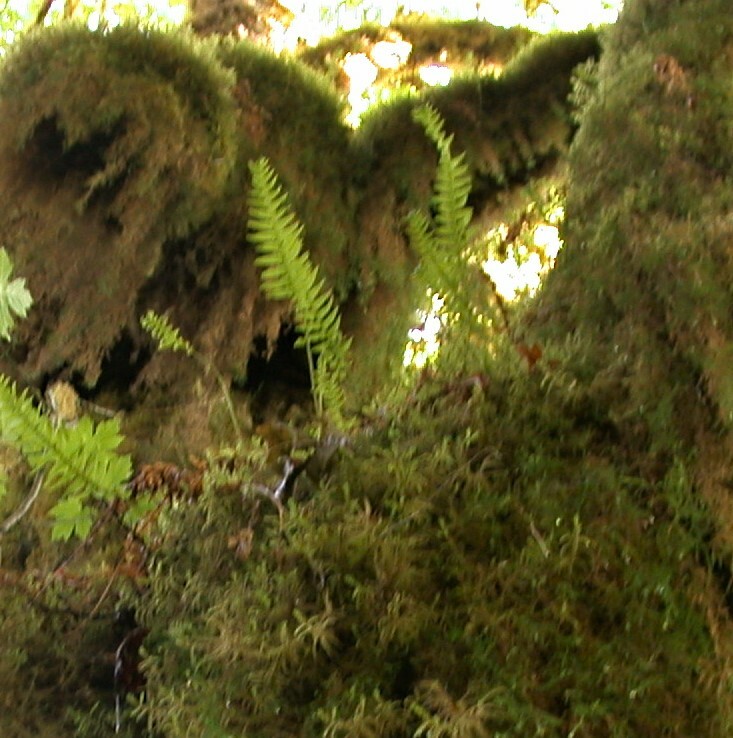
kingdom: Plantae
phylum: Tracheophyta
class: Polypodiopsida
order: Polypodiales
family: Polypodiaceae
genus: Polypodium
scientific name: Polypodium glycyrrhiza
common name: Licorice fern
